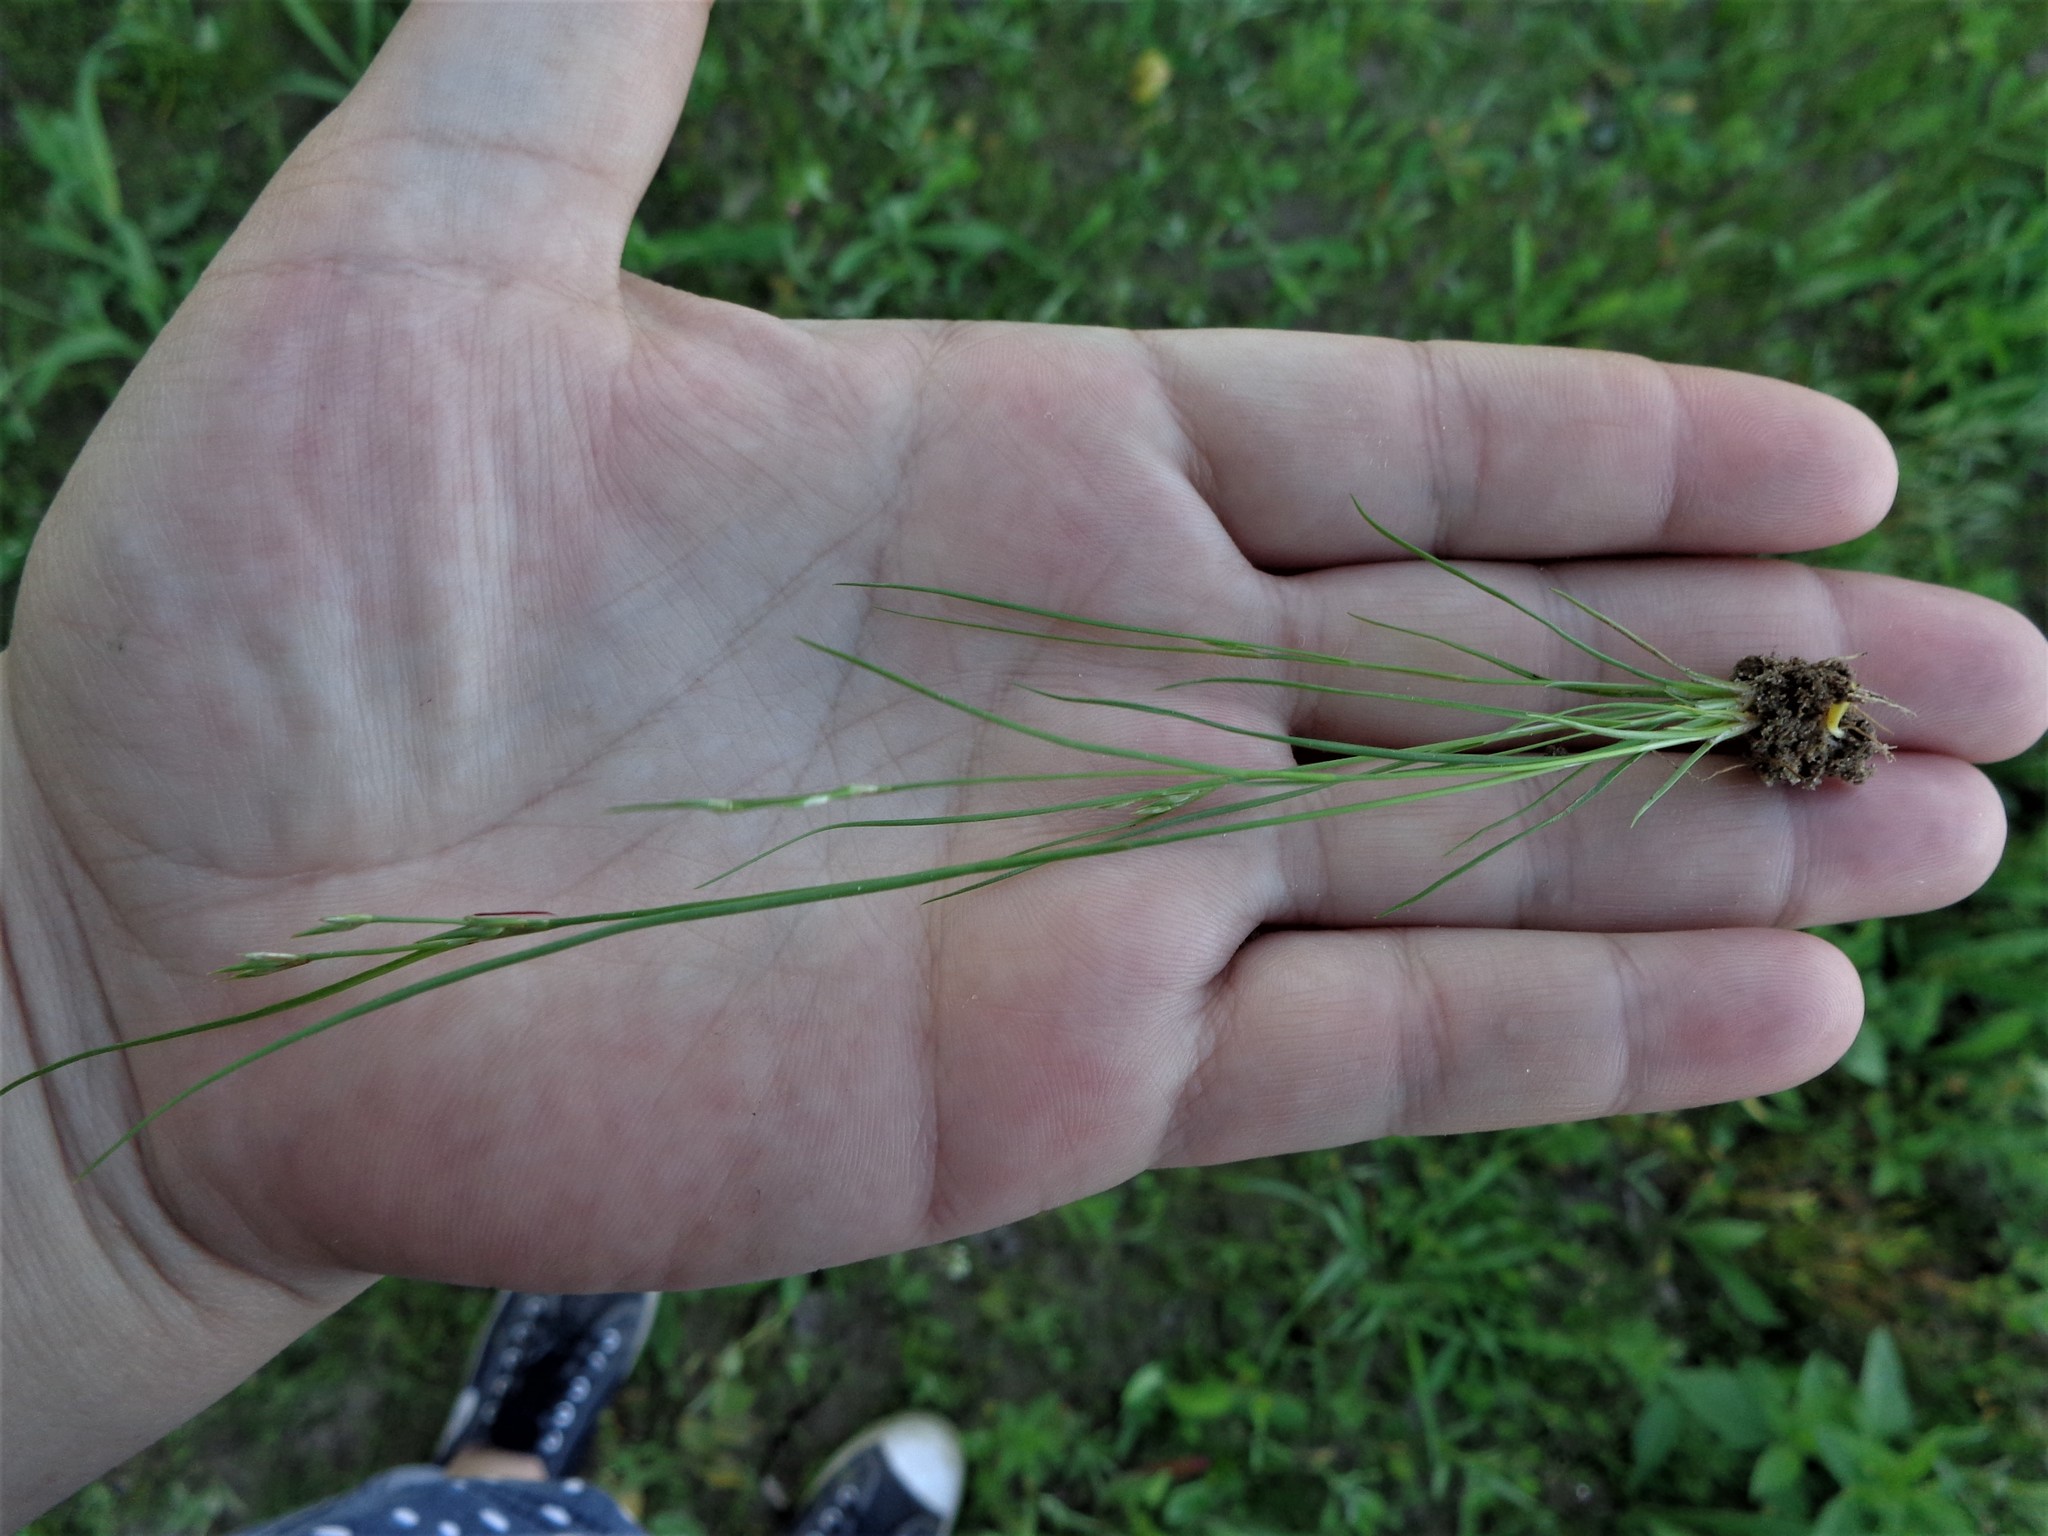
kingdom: Plantae
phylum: Tracheophyta
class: Liliopsida
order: Poales
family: Juncaceae
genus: Juncus
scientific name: Juncus bufonius
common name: Toad rush
